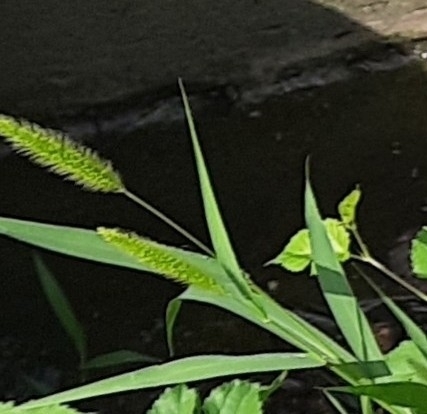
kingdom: Plantae
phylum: Tracheophyta
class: Liliopsida
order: Poales
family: Poaceae
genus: Setaria
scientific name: Setaria viridis
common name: Green bristlegrass
